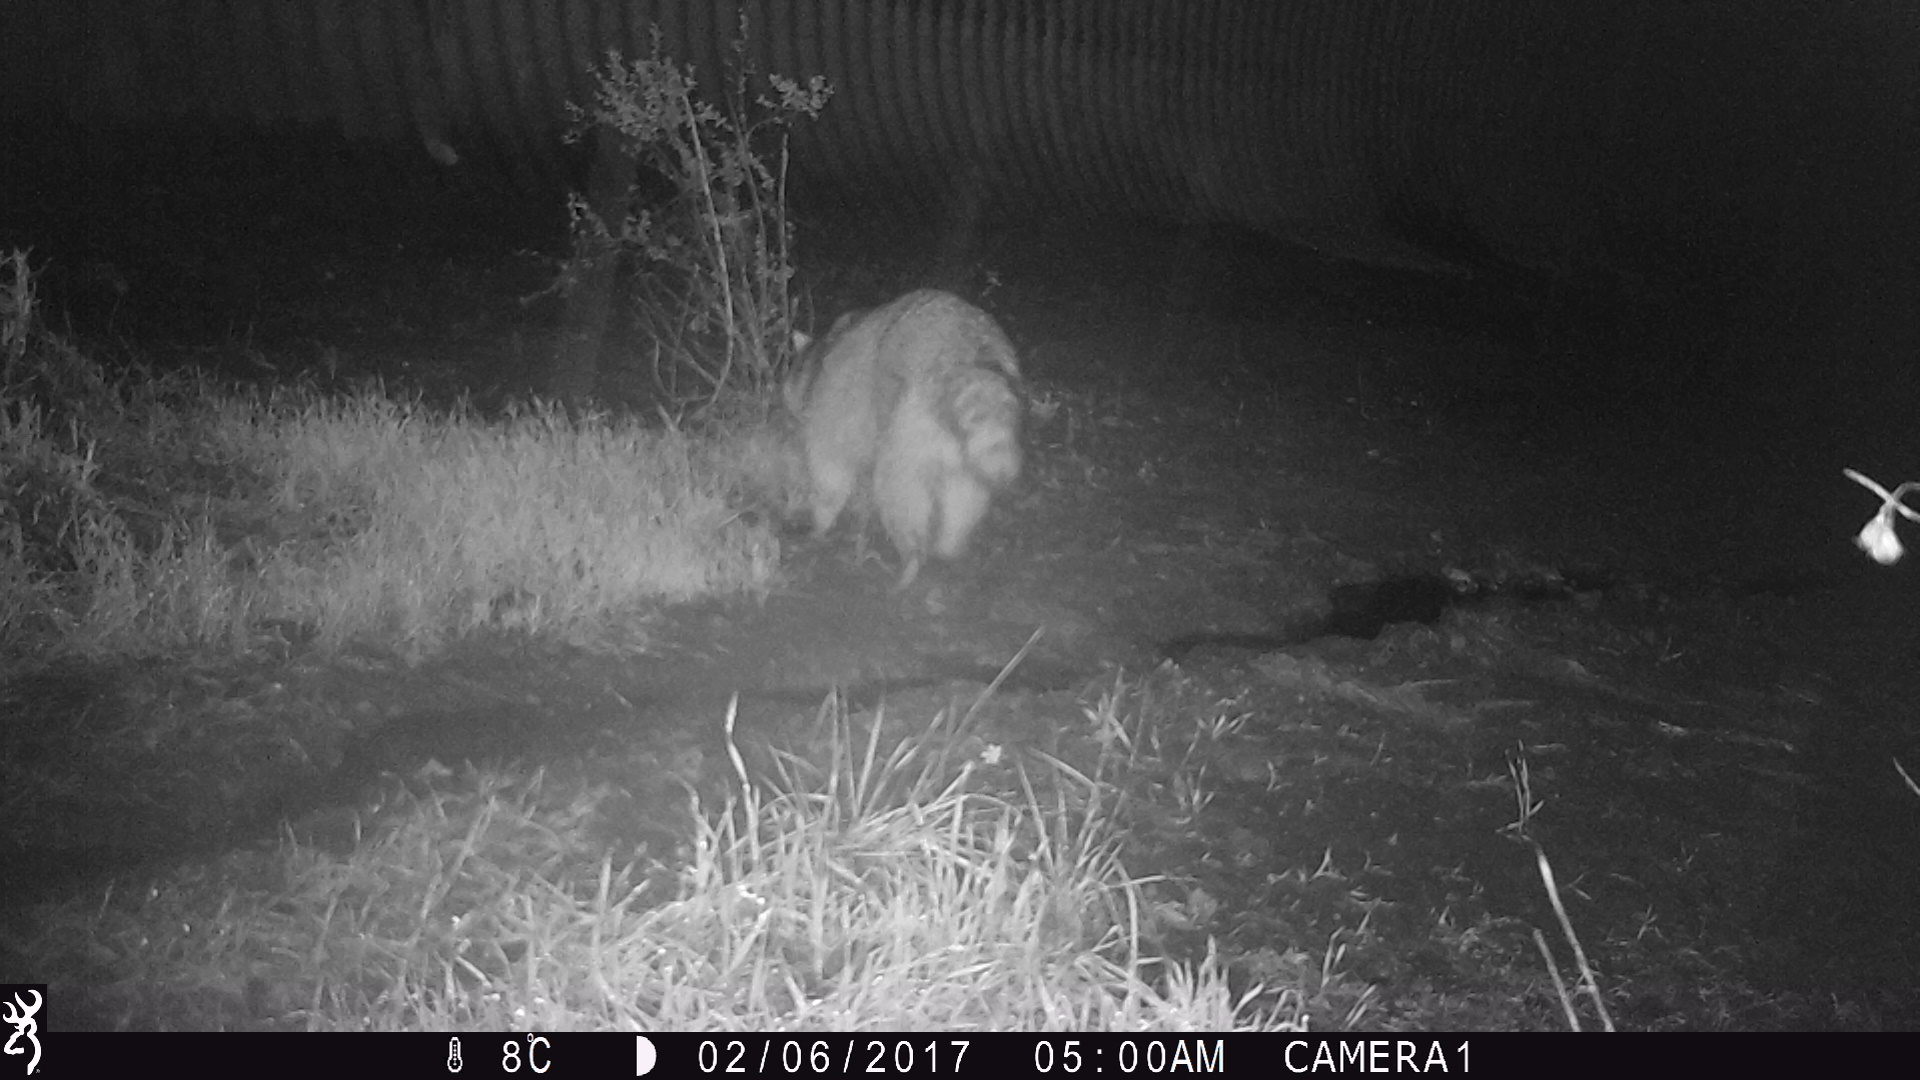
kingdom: Animalia
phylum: Chordata
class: Mammalia
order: Carnivora
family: Procyonidae
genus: Procyon
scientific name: Procyon lotor
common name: Raccoon
